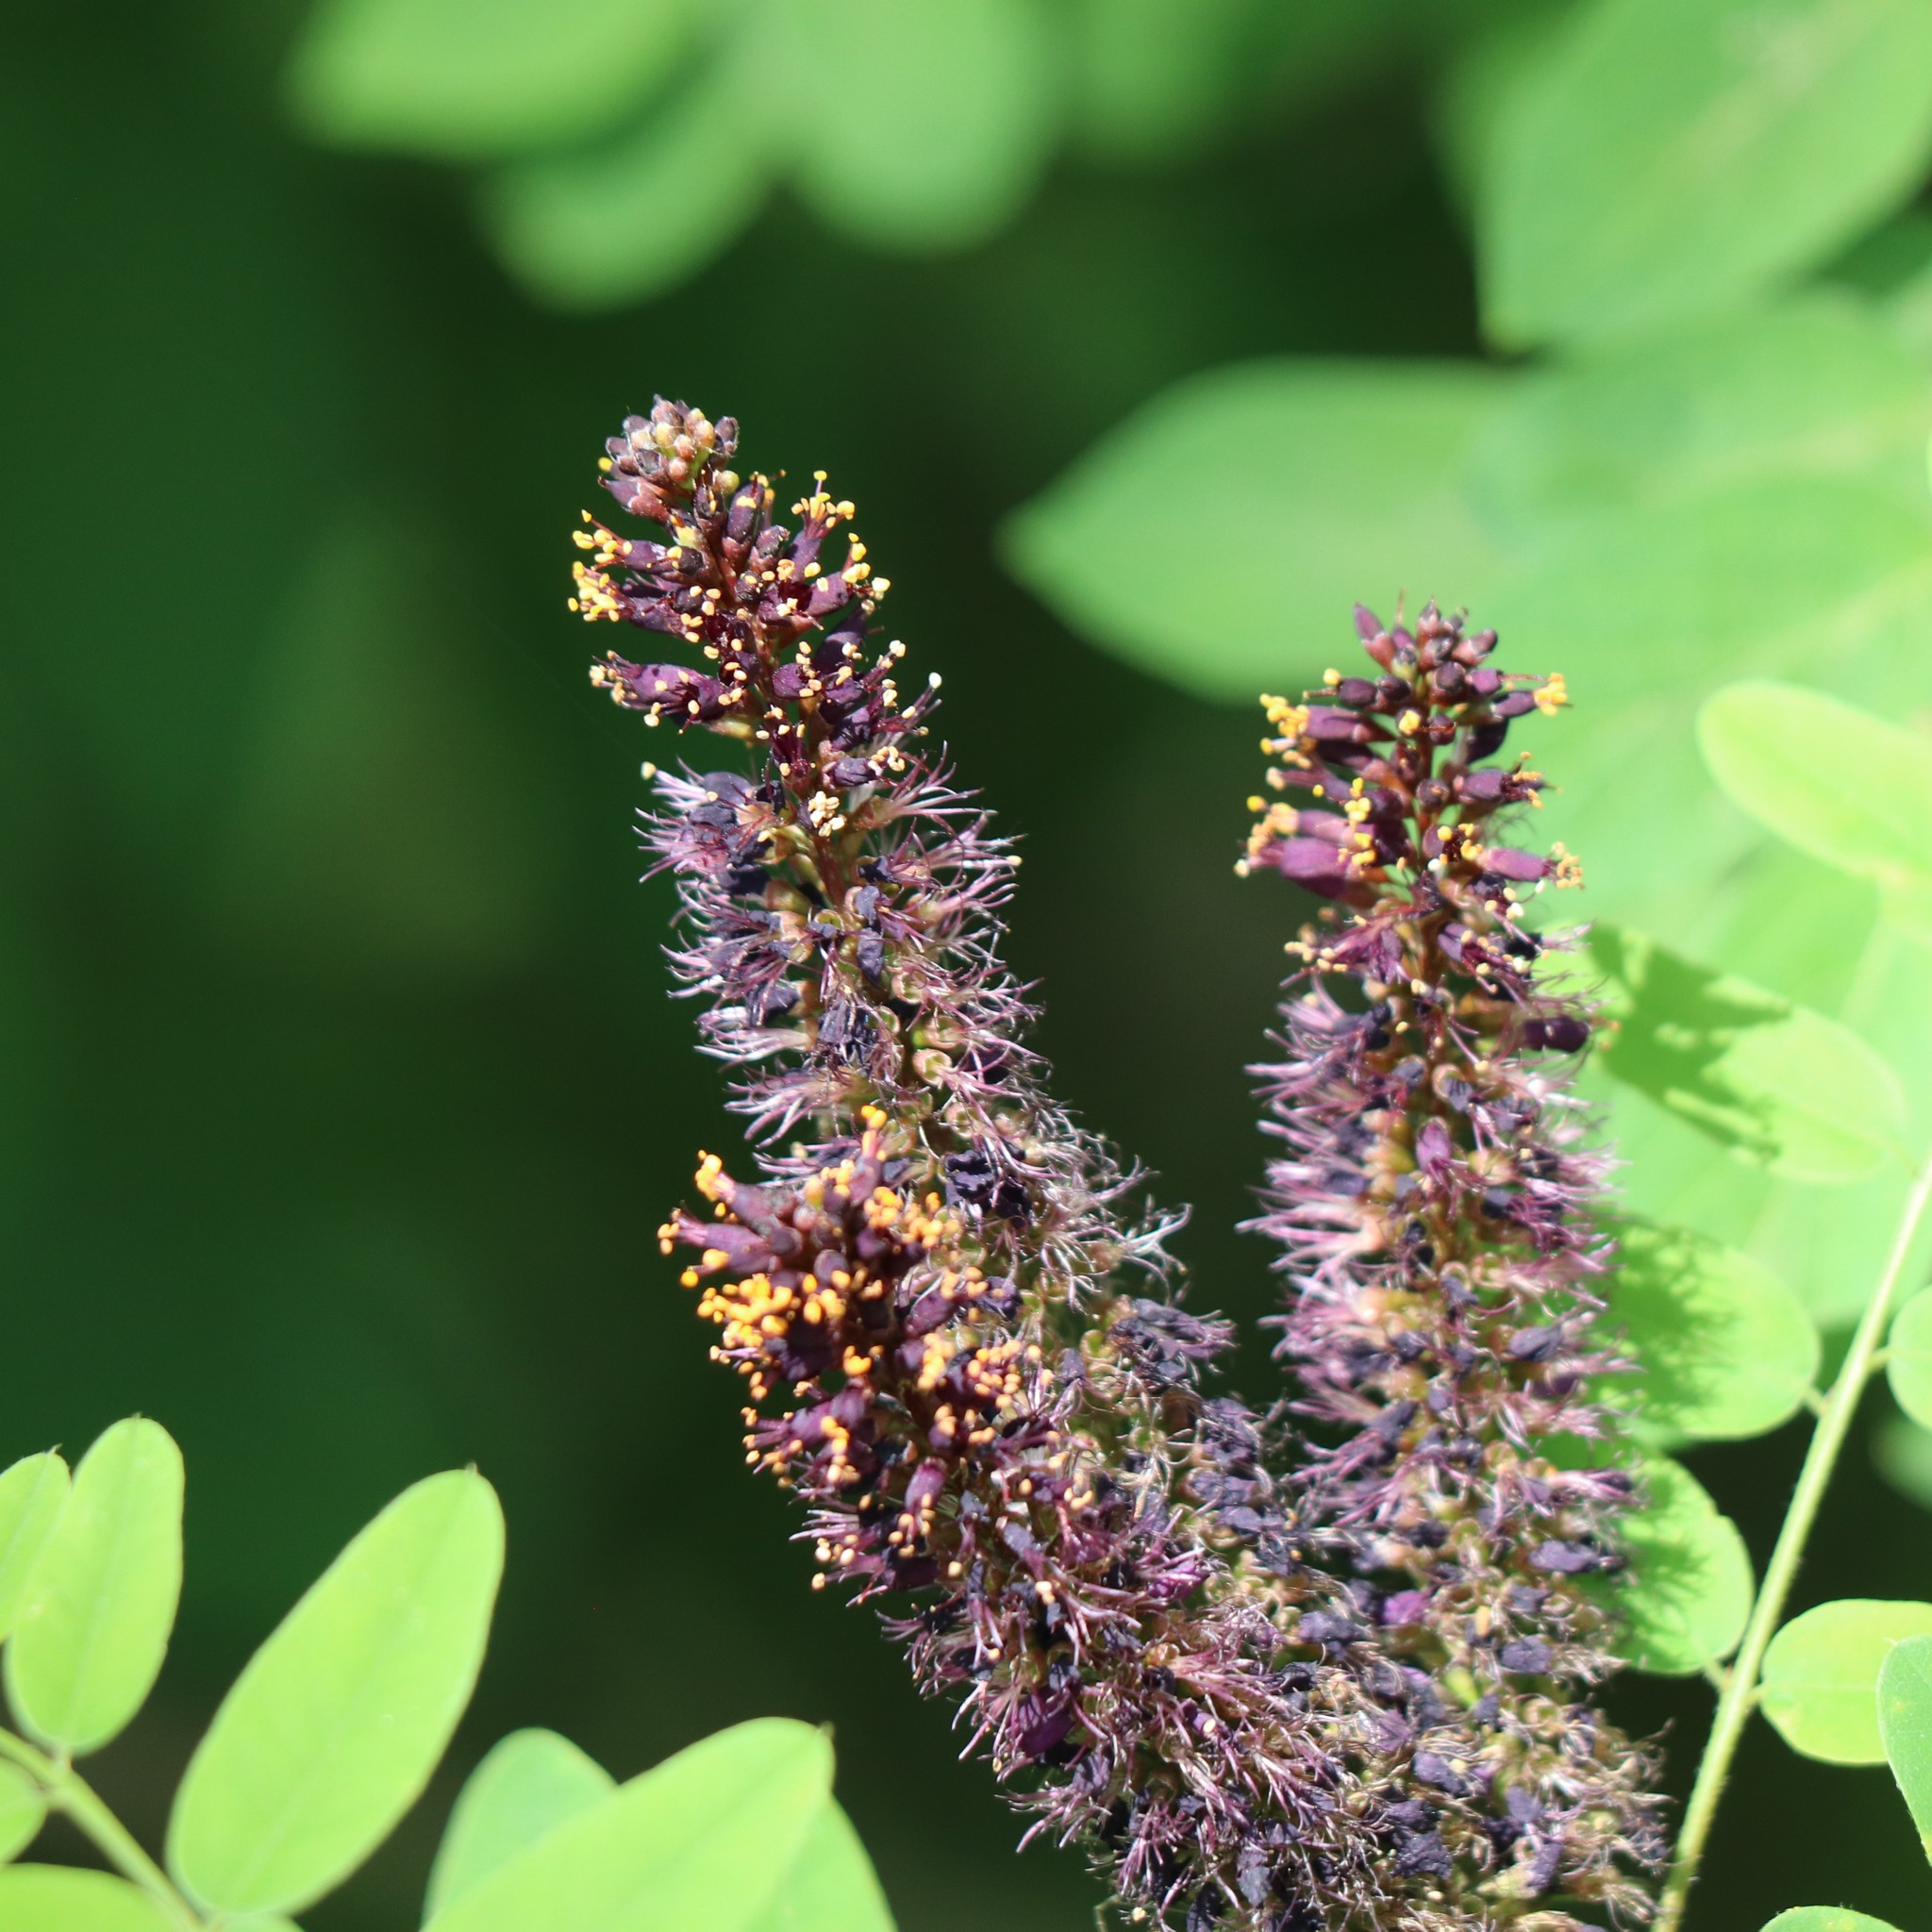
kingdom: Plantae
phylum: Tracheophyta
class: Magnoliopsida
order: Fabales
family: Fabaceae
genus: Amorpha
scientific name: Amorpha fruticosa
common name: False indigo
